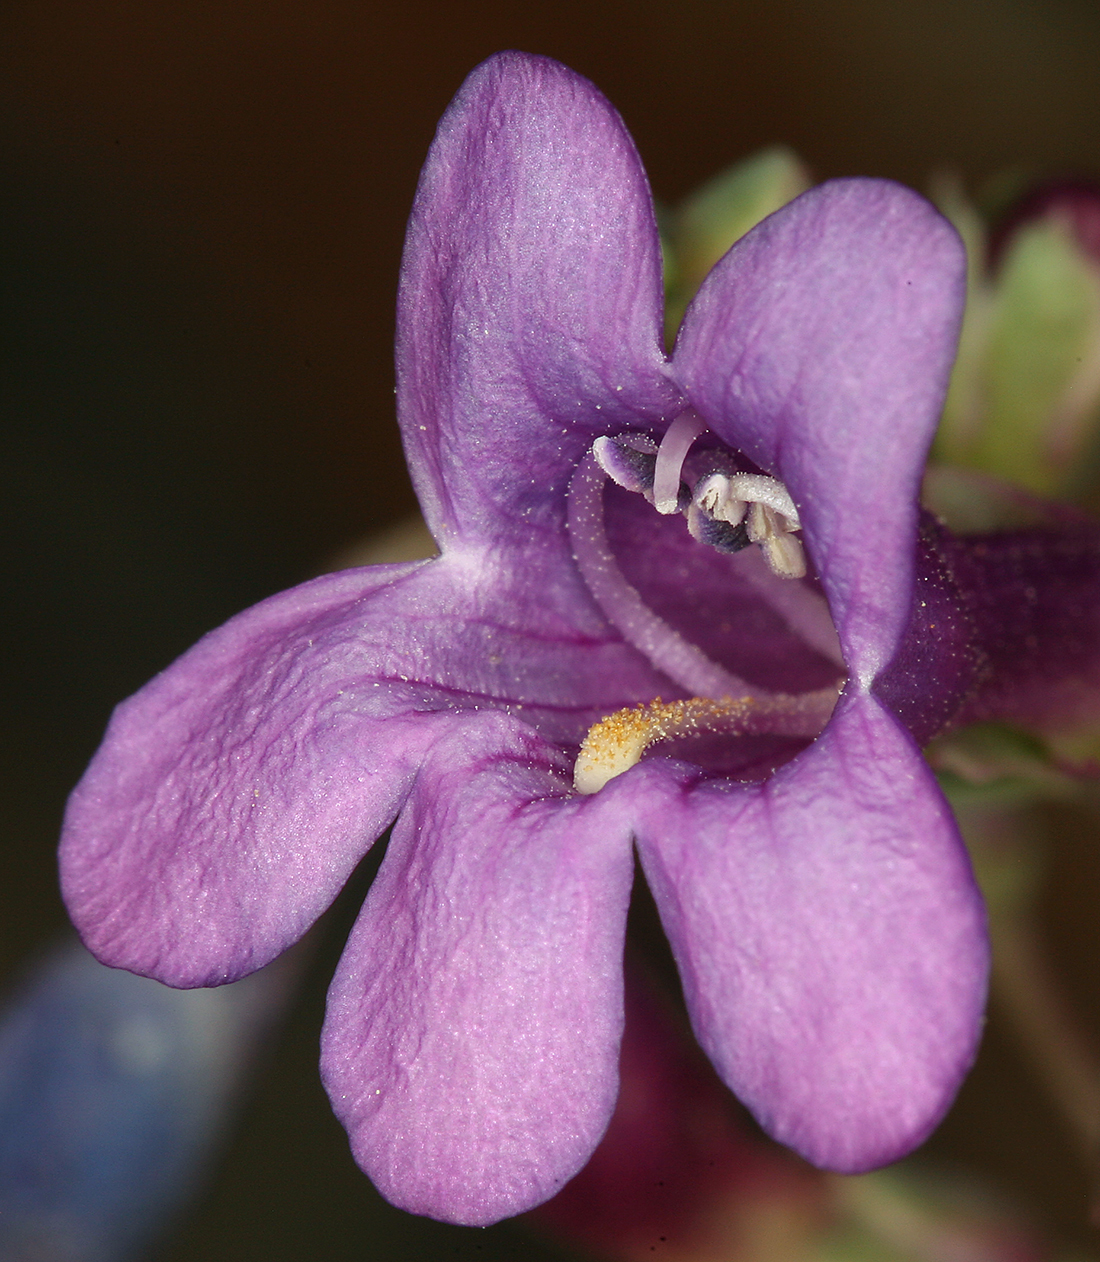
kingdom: Plantae
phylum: Tracheophyta
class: Magnoliopsida
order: Lamiales
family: Plantaginaceae
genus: Penstemon
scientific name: Penstemon patens
